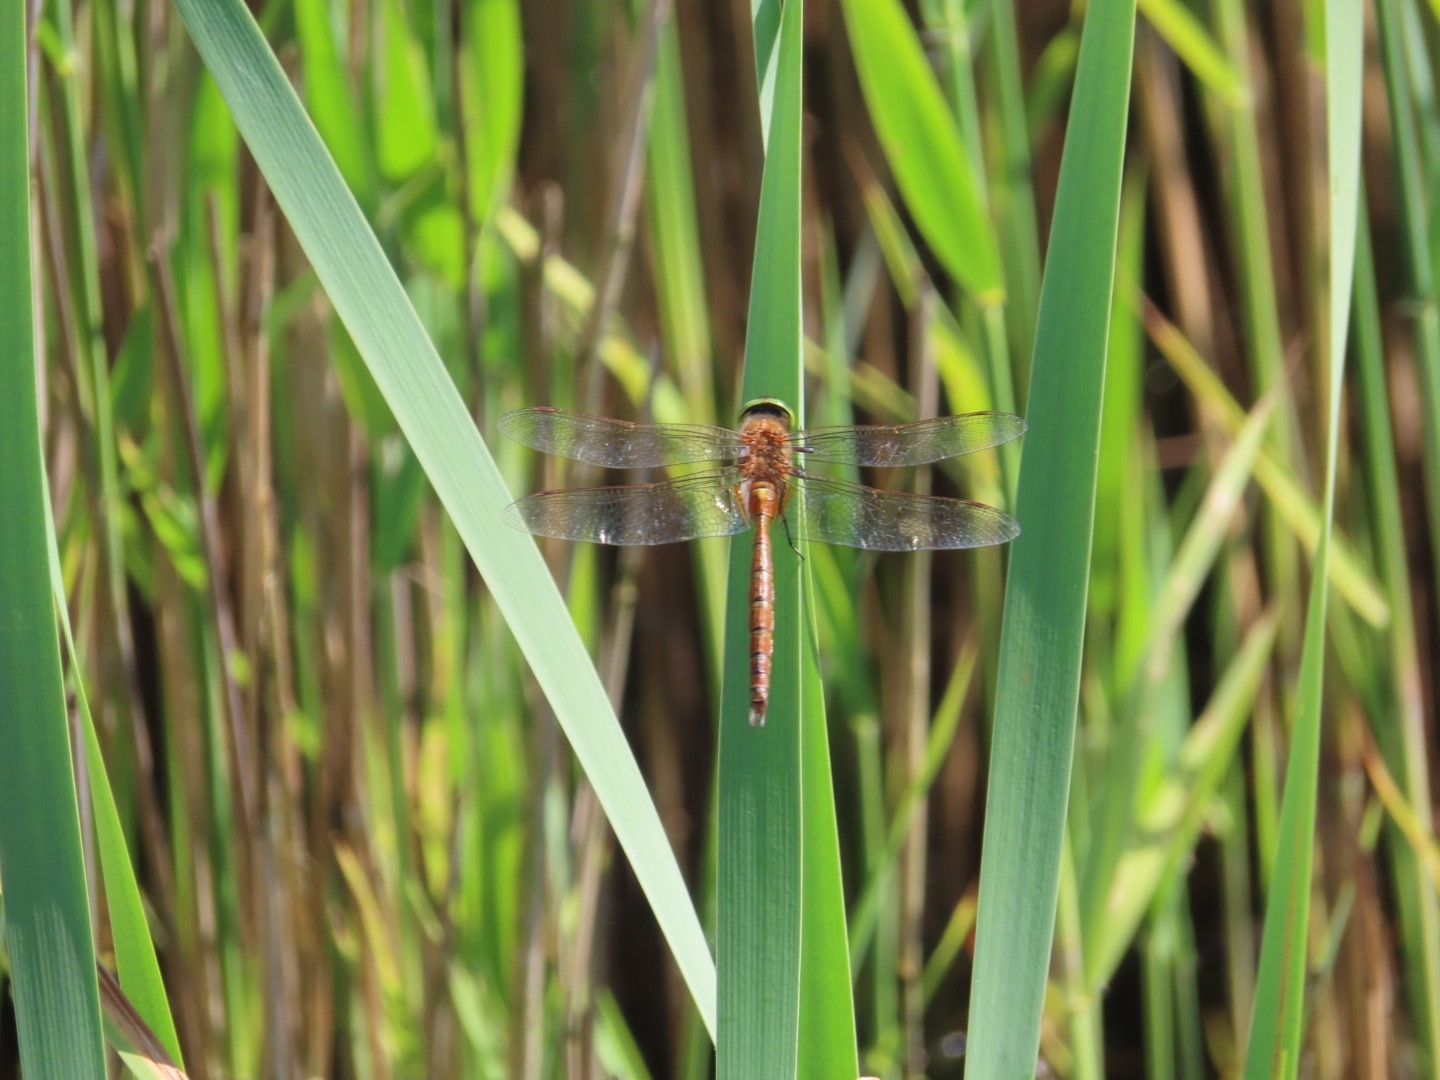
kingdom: Animalia
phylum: Arthropoda
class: Insecta
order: Odonata
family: Aeshnidae
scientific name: Aeshnidae
